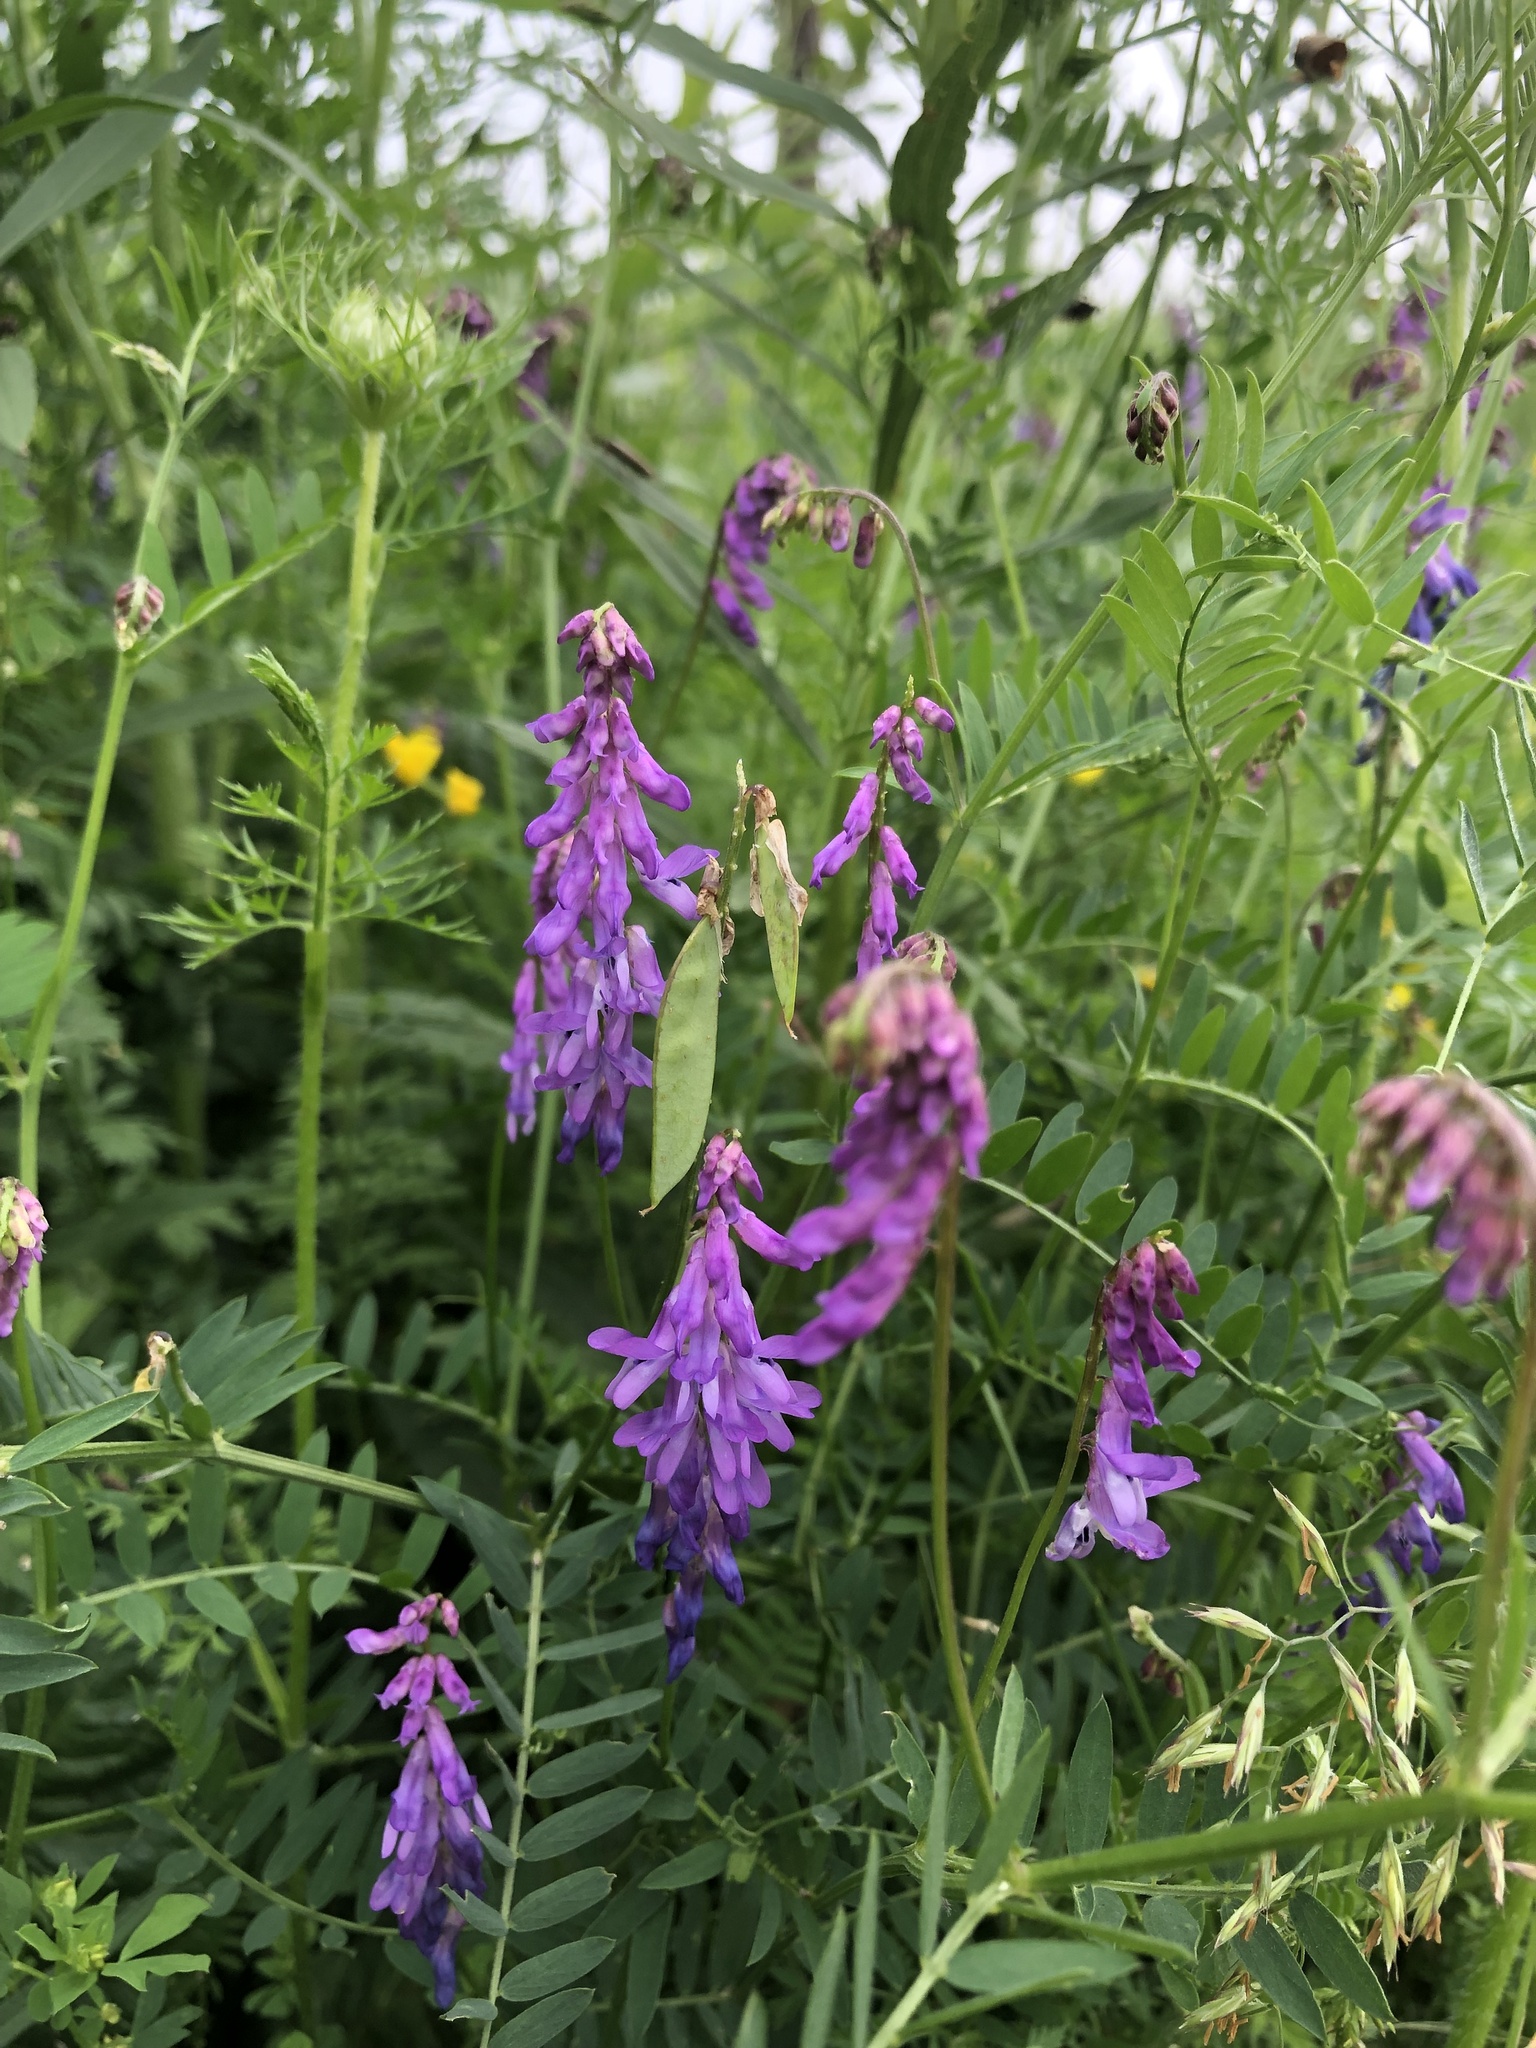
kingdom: Plantae
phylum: Tracheophyta
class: Magnoliopsida
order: Fabales
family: Fabaceae
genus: Vicia
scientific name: Vicia cracca
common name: Bird vetch
